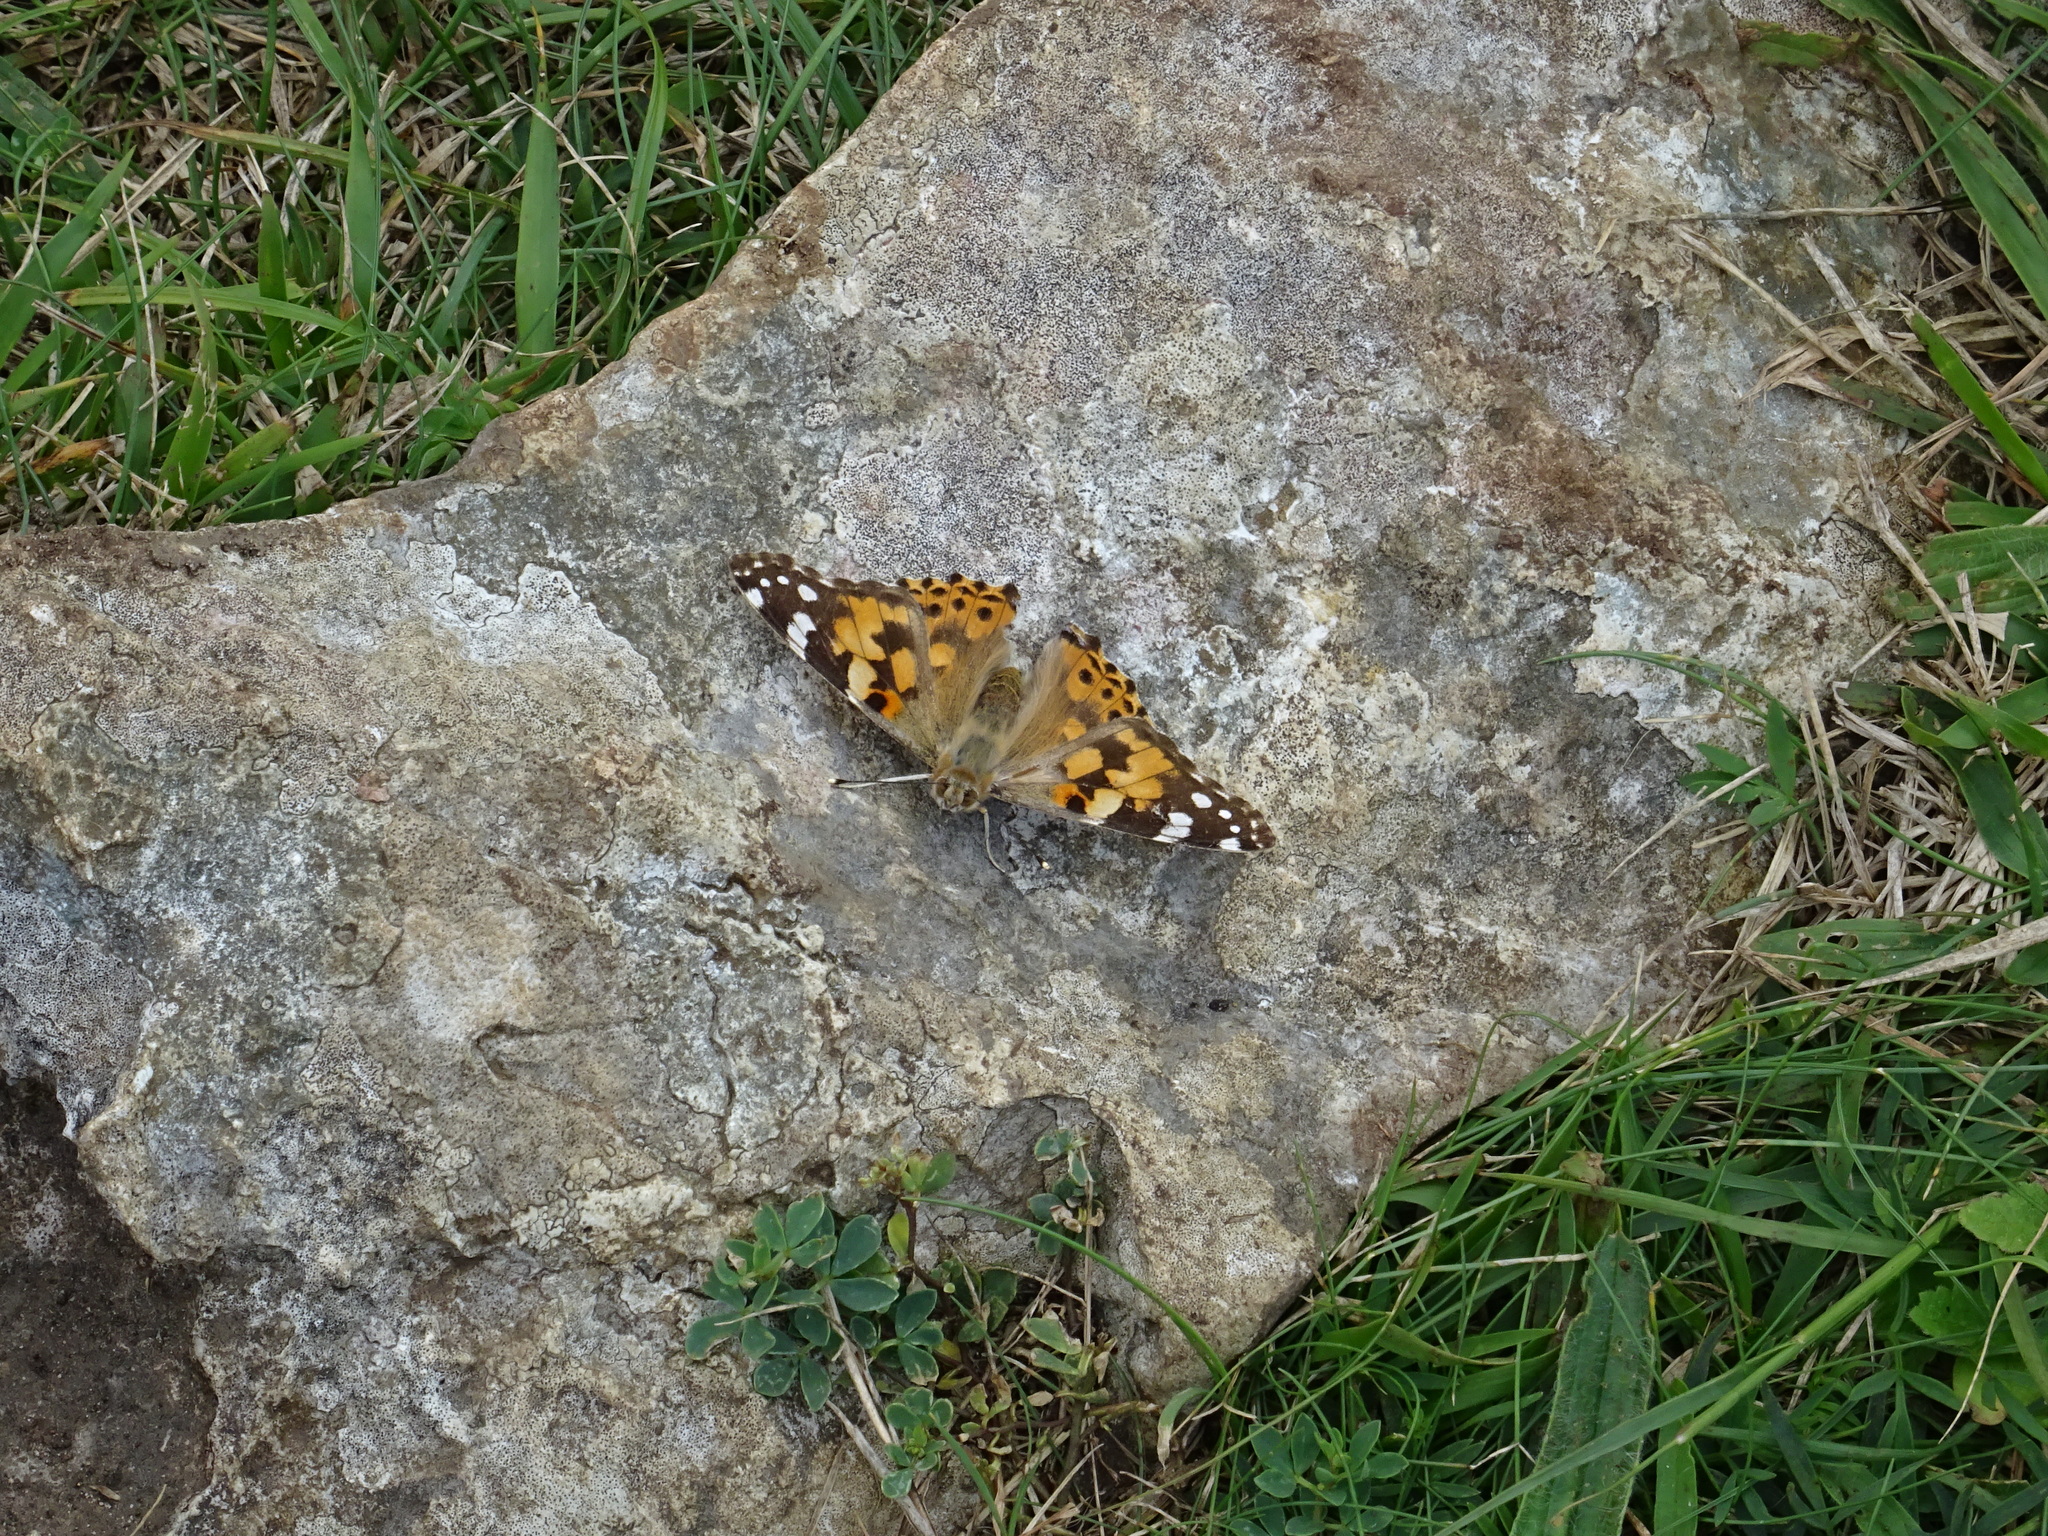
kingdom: Animalia
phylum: Arthropoda
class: Insecta
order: Lepidoptera
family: Nymphalidae
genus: Vanessa
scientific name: Vanessa cardui
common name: Painted lady
